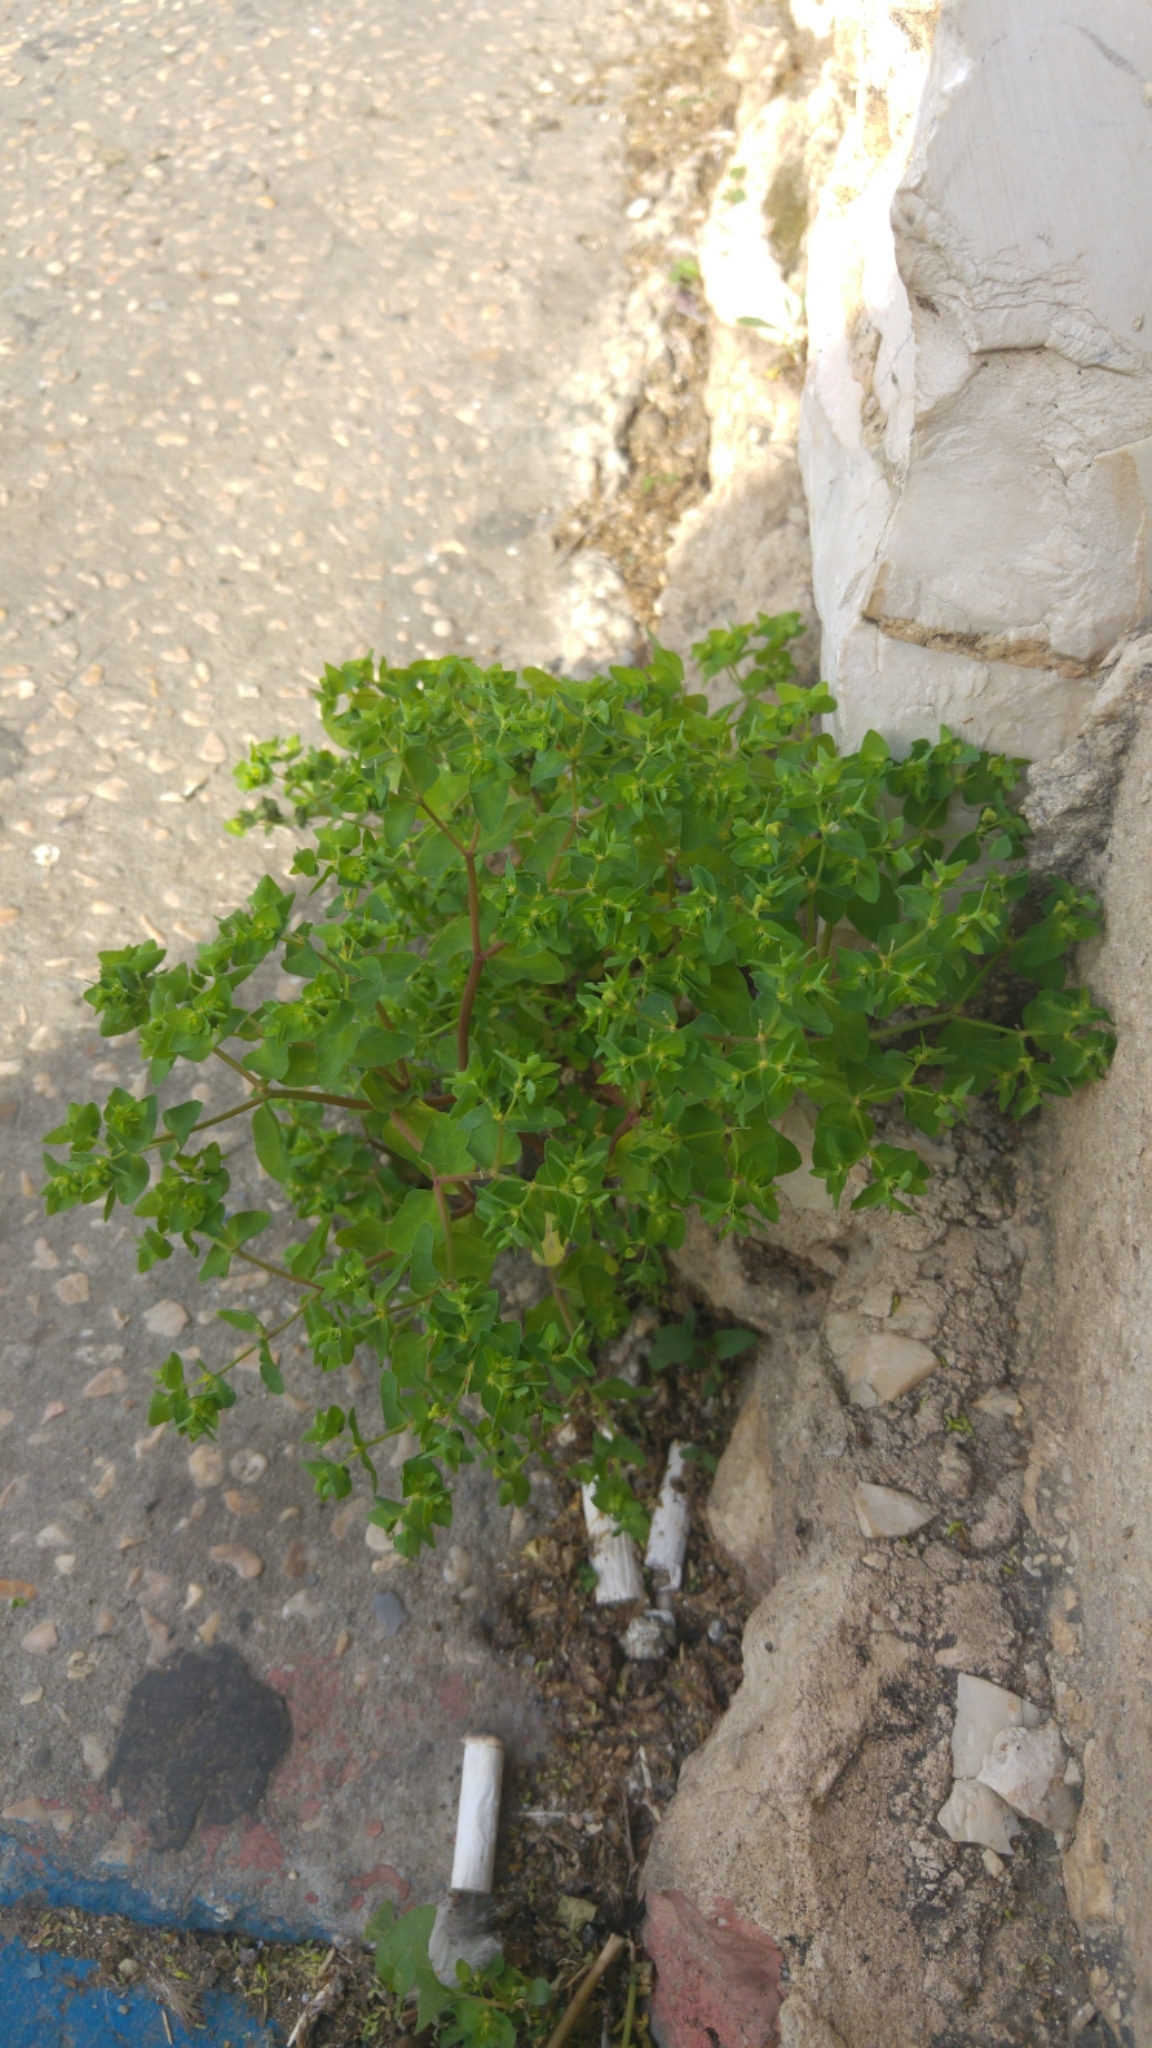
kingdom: Plantae
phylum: Tracheophyta
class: Magnoliopsida
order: Malpighiales
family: Euphorbiaceae
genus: Euphorbia
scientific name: Euphorbia peplus
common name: Petty spurge
